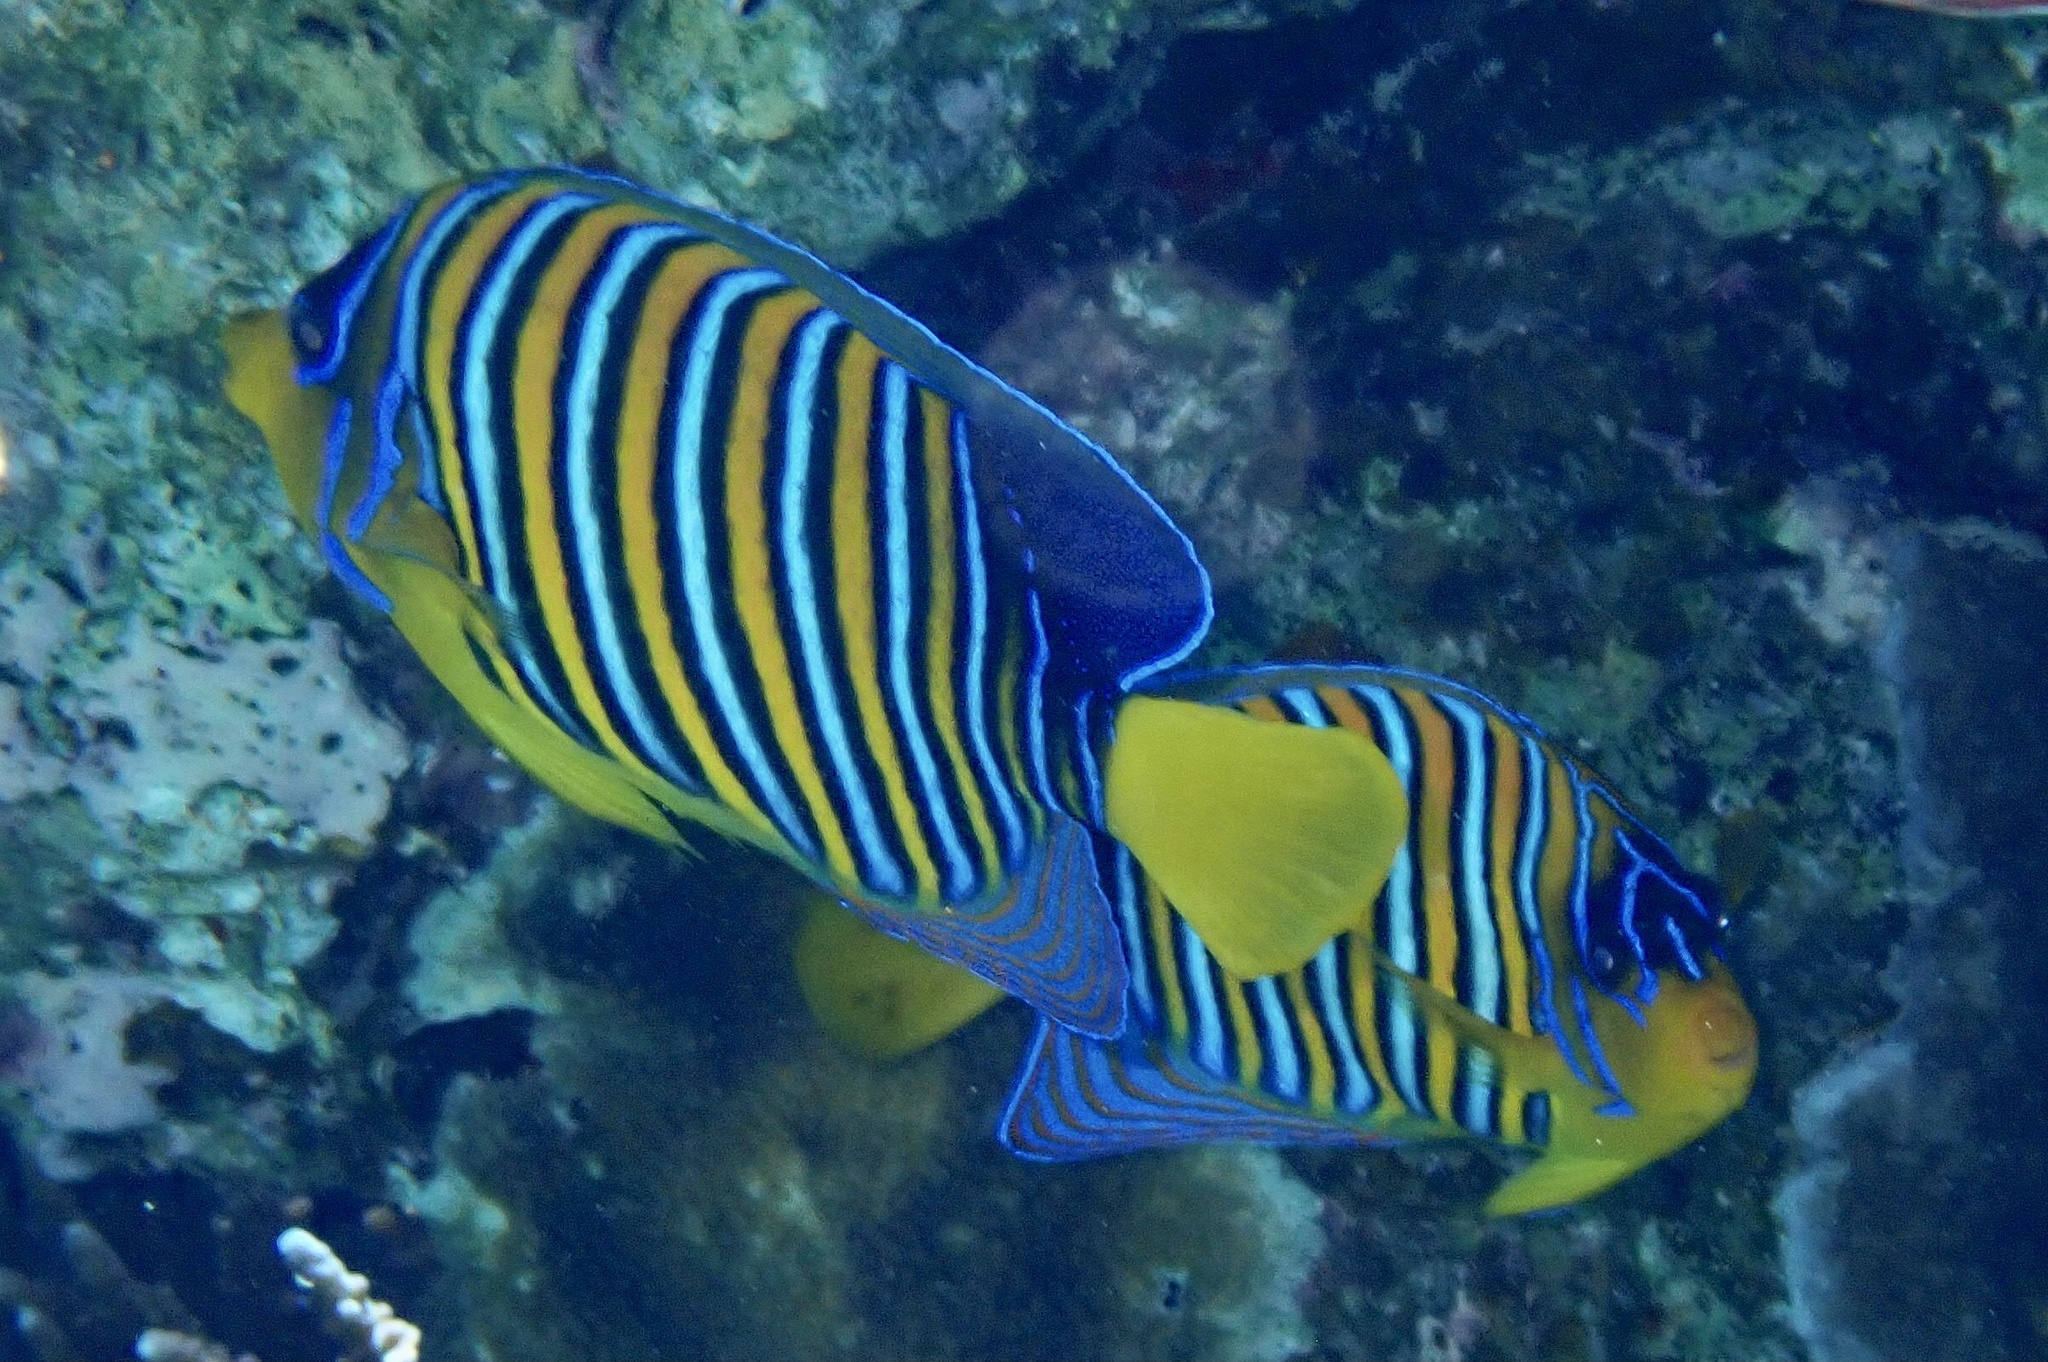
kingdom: Animalia
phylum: Chordata
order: Perciformes
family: Pomacanthidae
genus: Pygoplites
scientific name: Pygoplites diacanthus
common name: Regal angelfish
